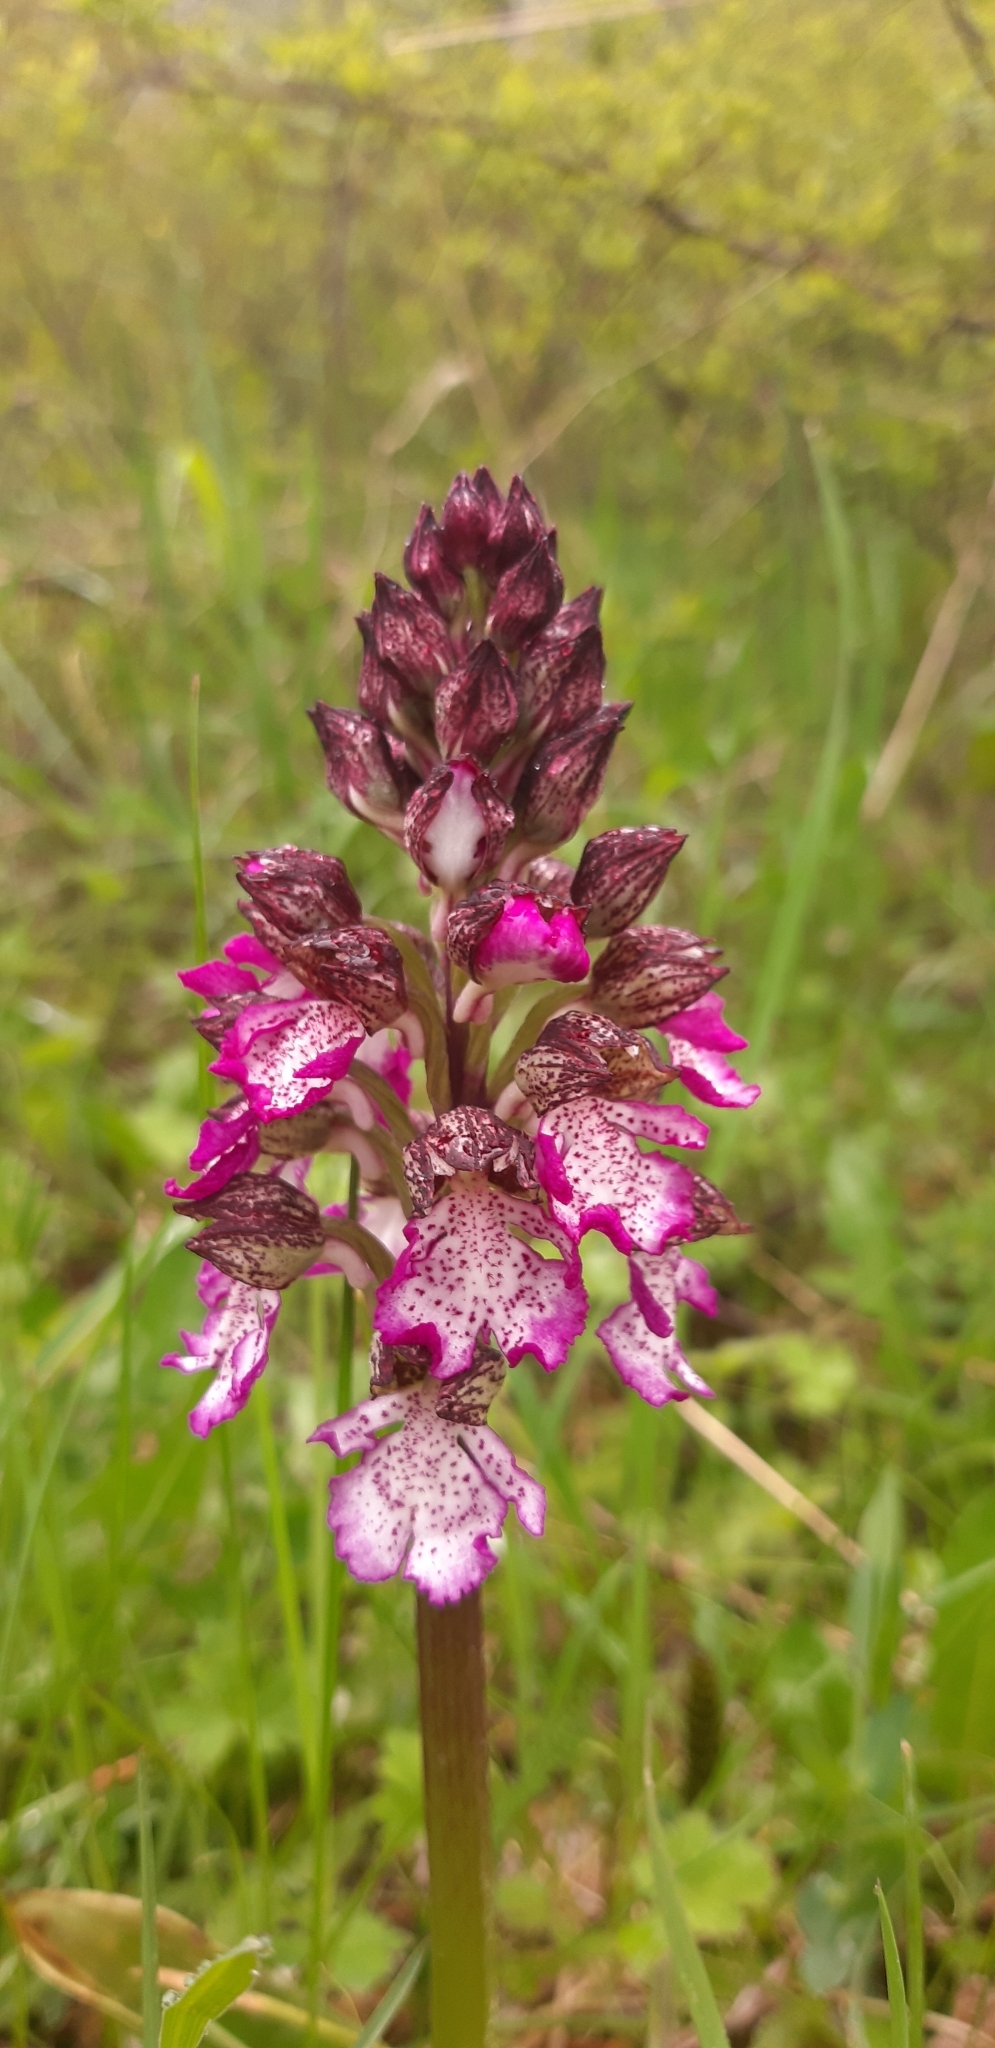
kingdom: Plantae
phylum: Tracheophyta
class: Liliopsida
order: Asparagales
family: Orchidaceae
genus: Orchis
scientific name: Orchis purpurea
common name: Lady orchid
